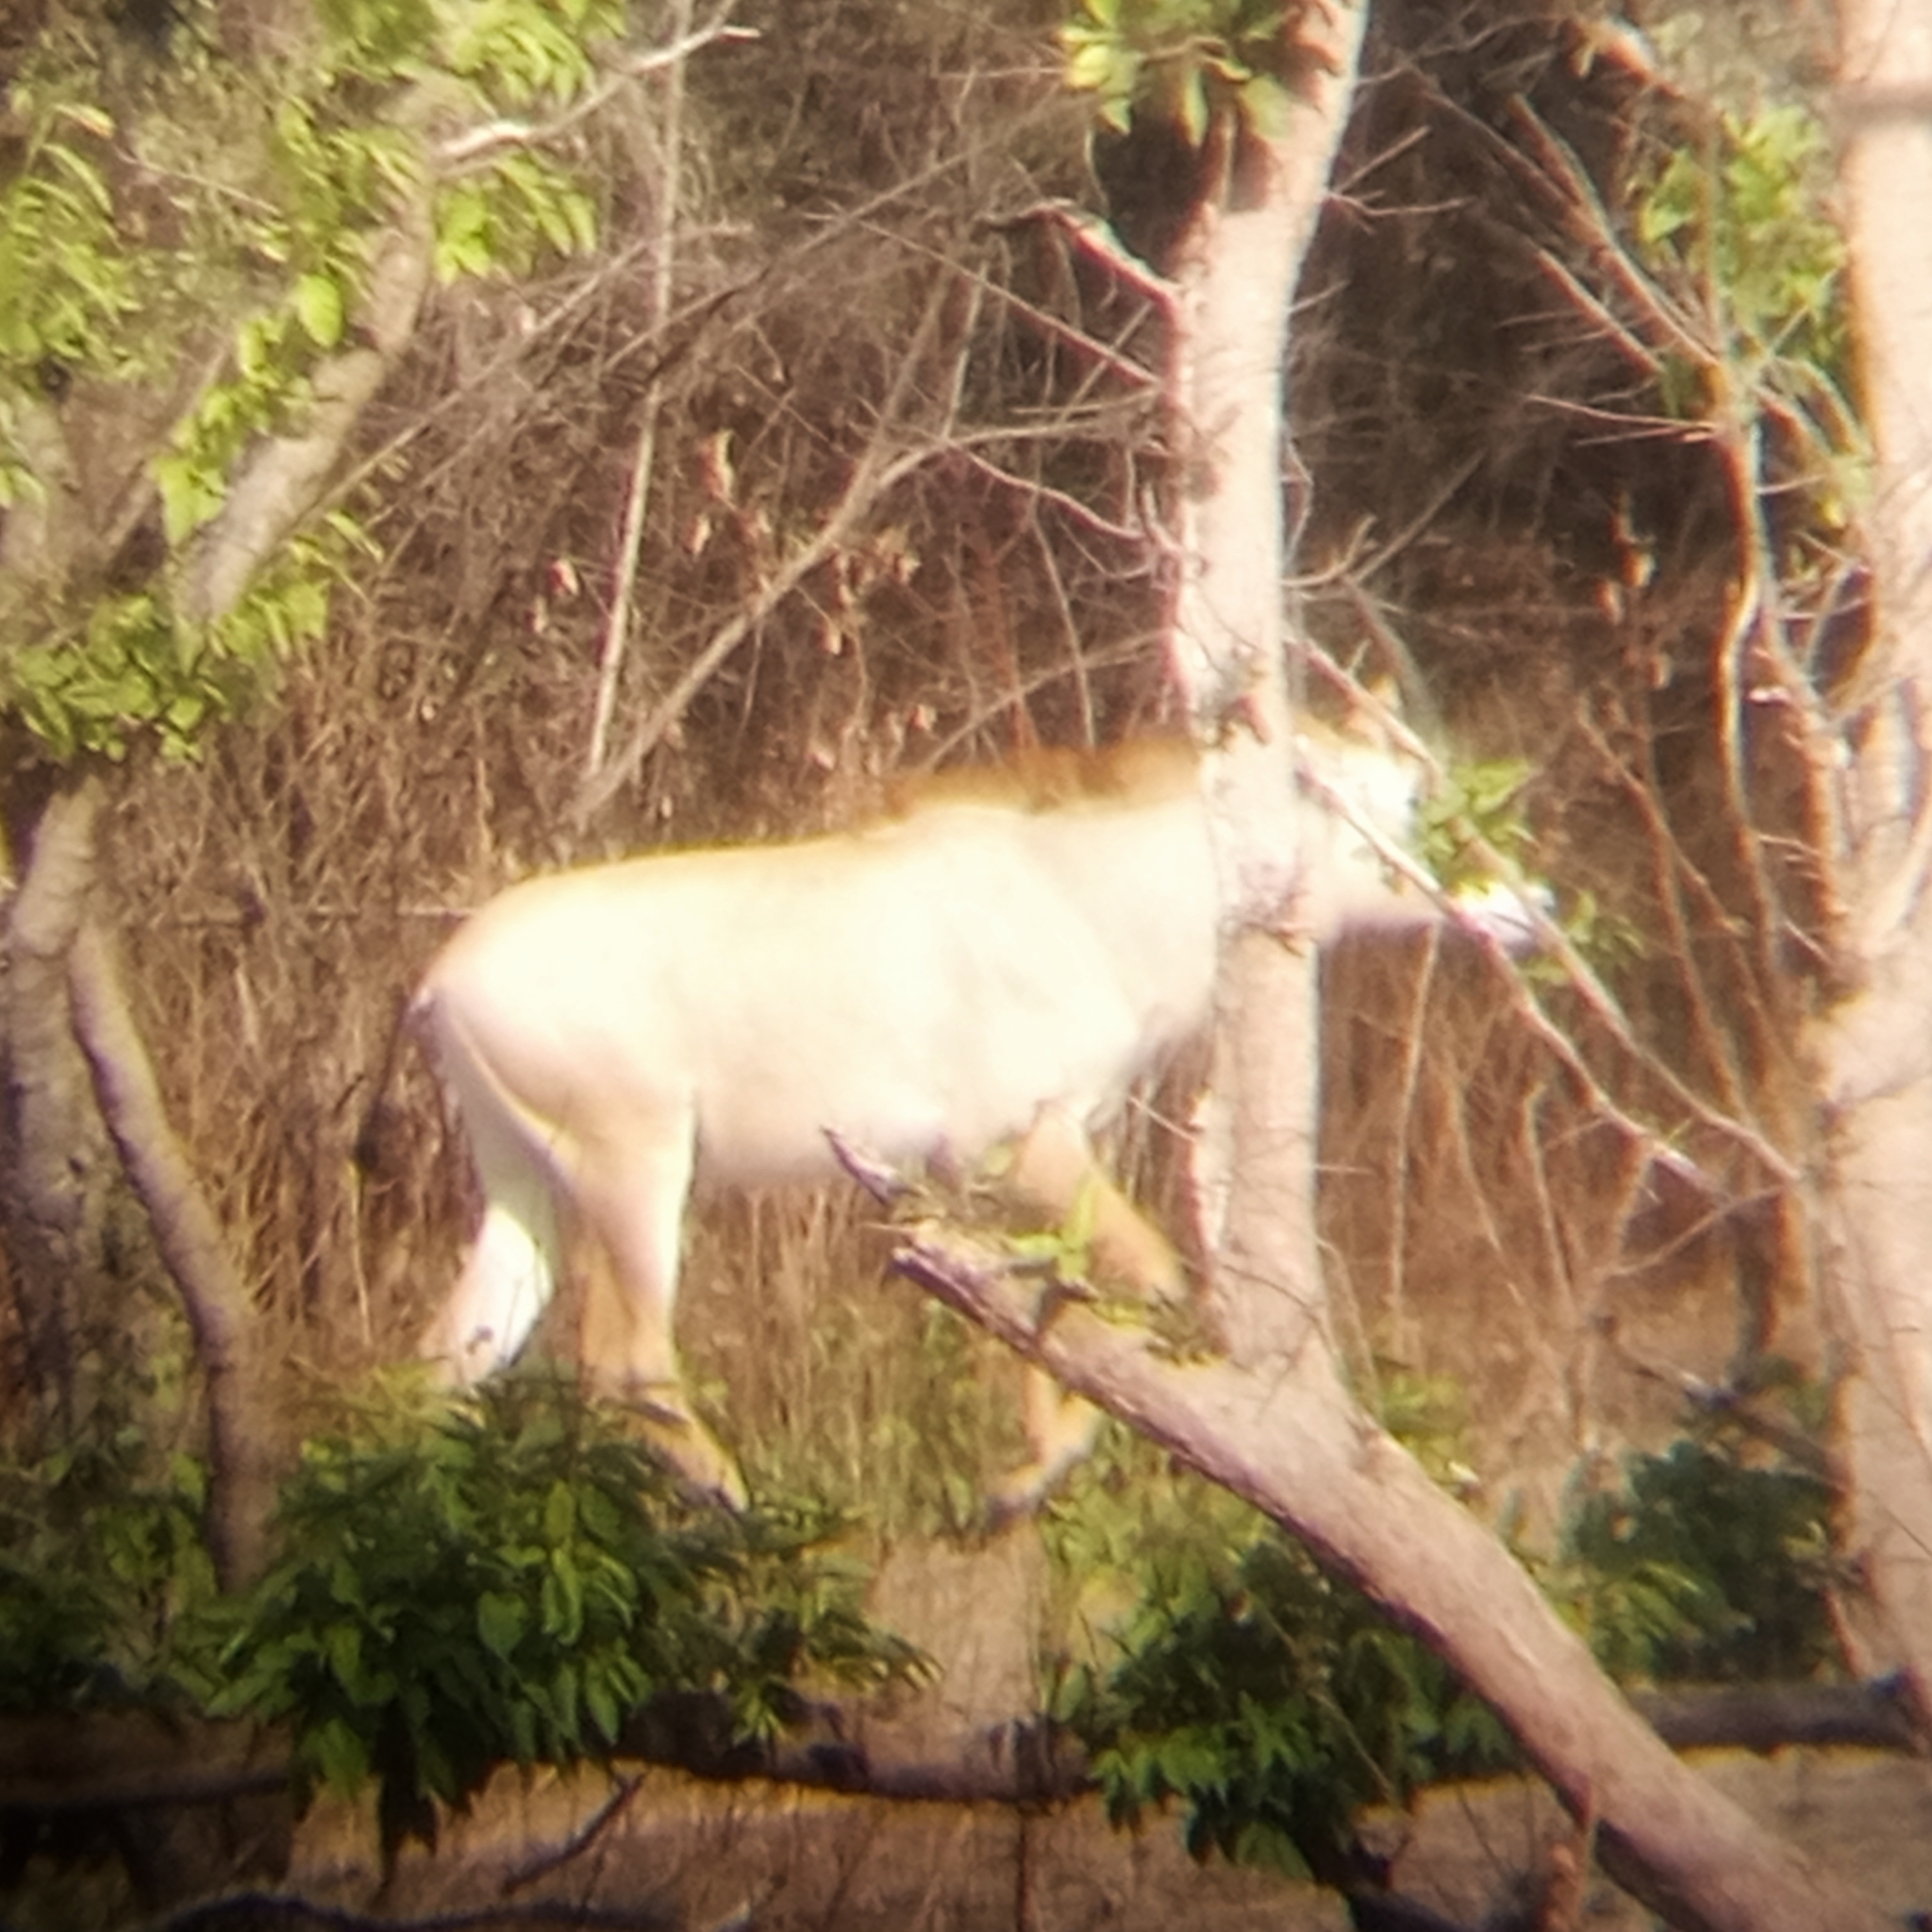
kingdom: Animalia
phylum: Chordata
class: Mammalia
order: Artiodactyla
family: Bovidae
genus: Hippotragus
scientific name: Hippotragus equinus
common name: Roan antelope
